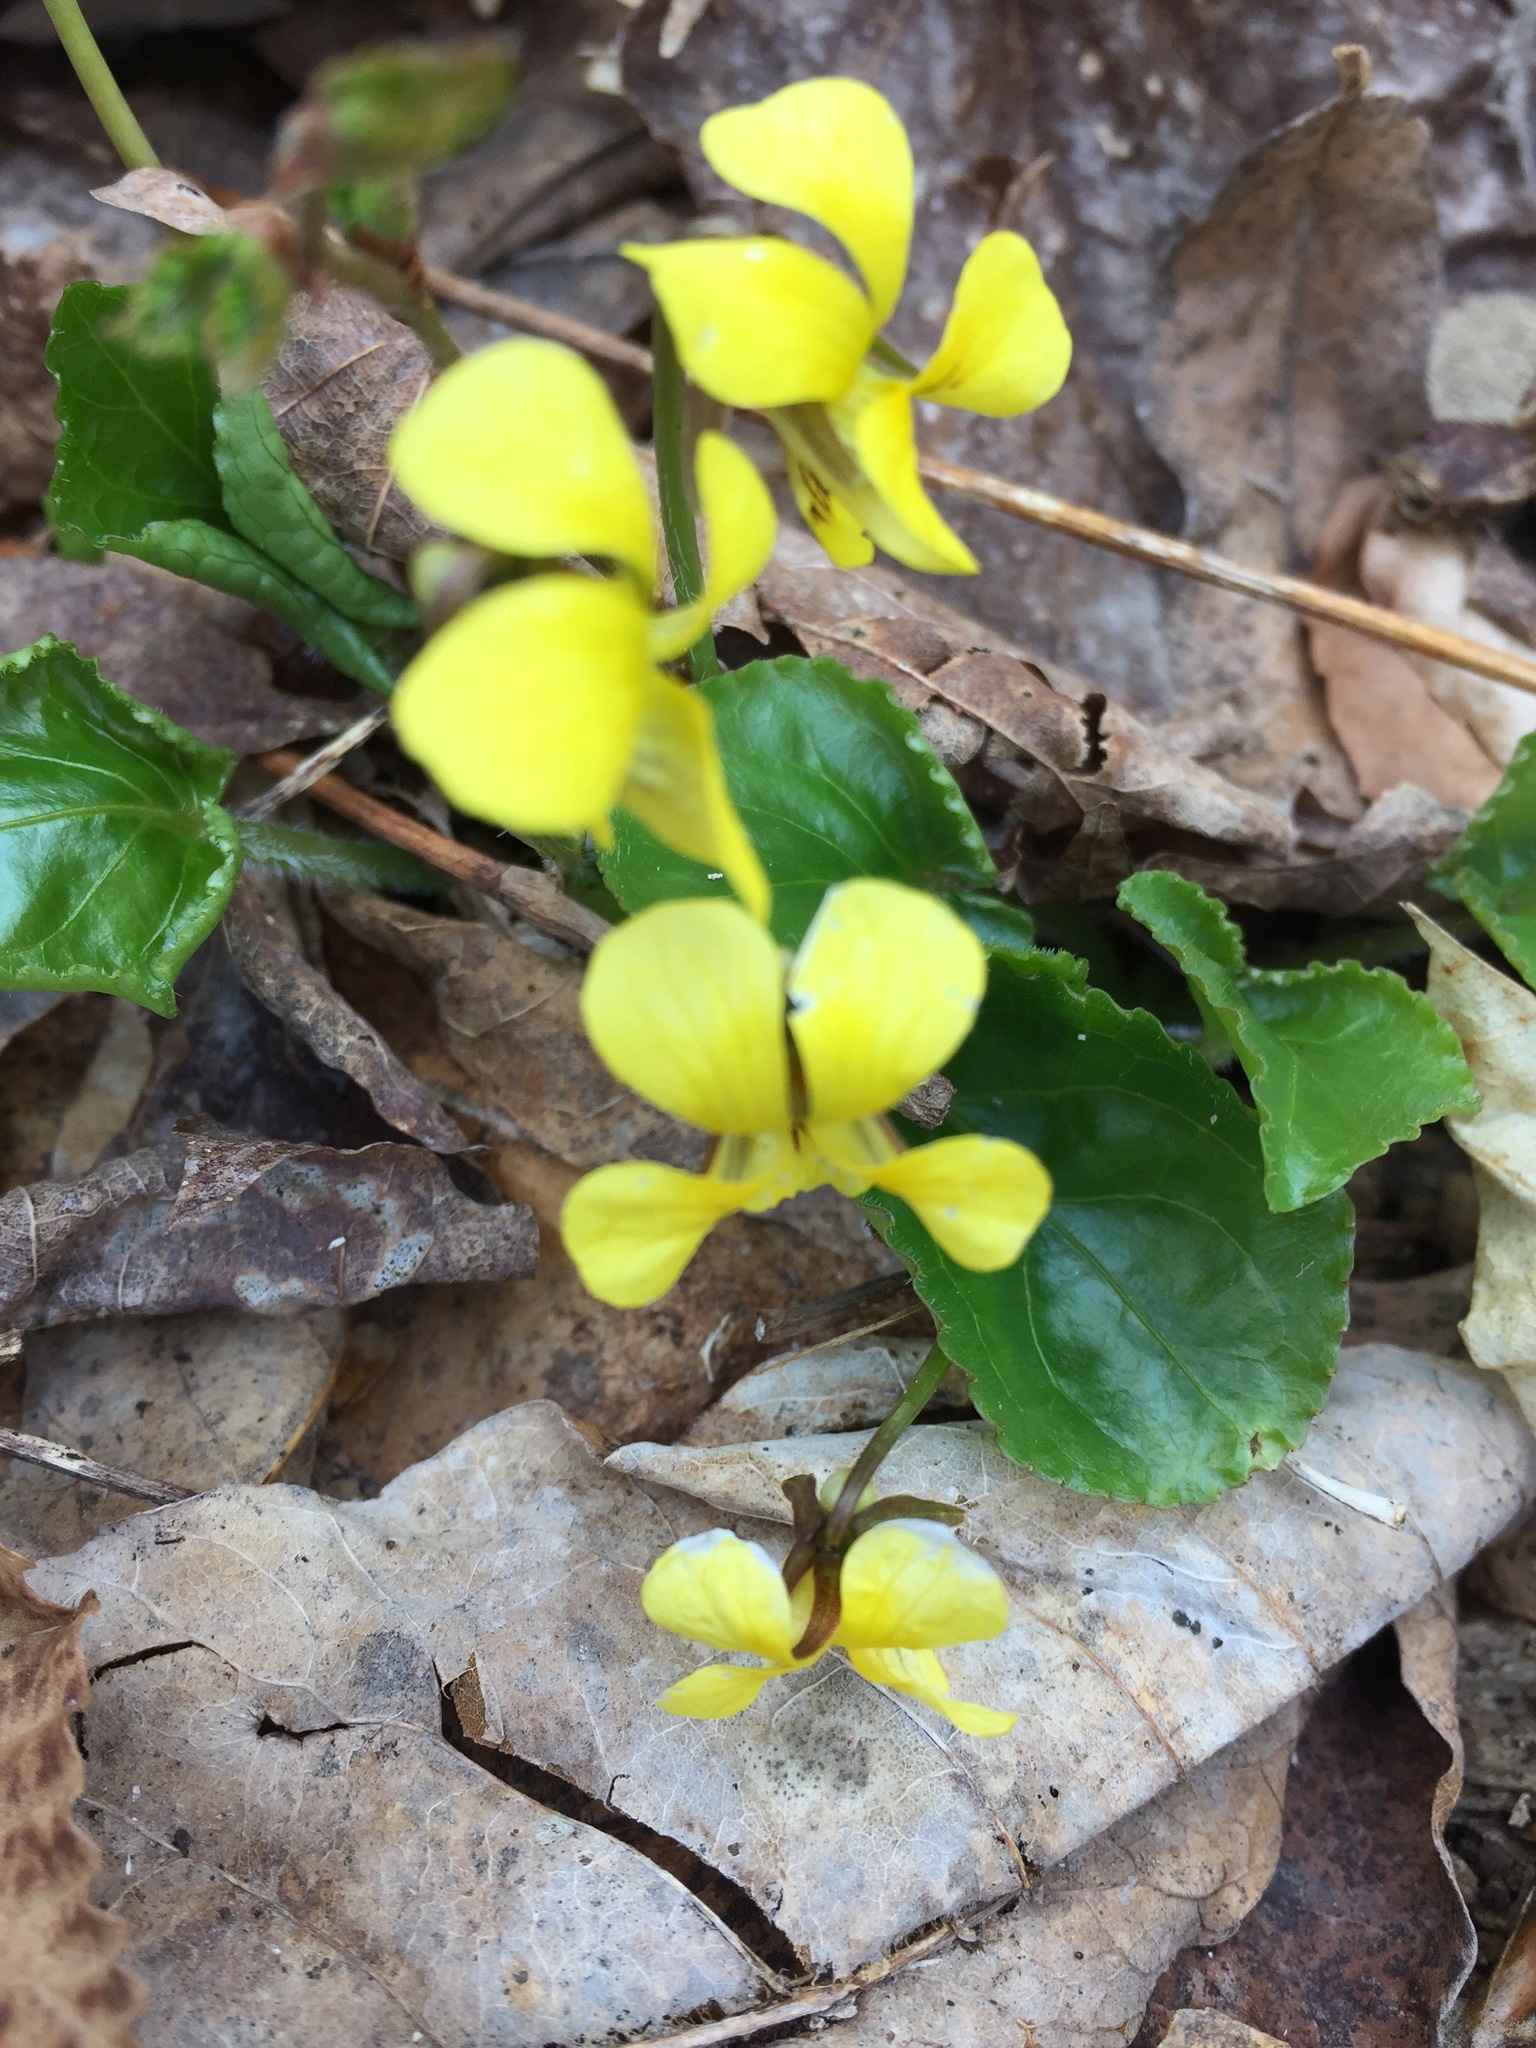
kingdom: Plantae
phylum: Tracheophyta
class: Magnoliopsida
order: Malpighiales
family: Violaceae
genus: Viola
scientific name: Viola rotundifolia
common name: Early yellow violet
